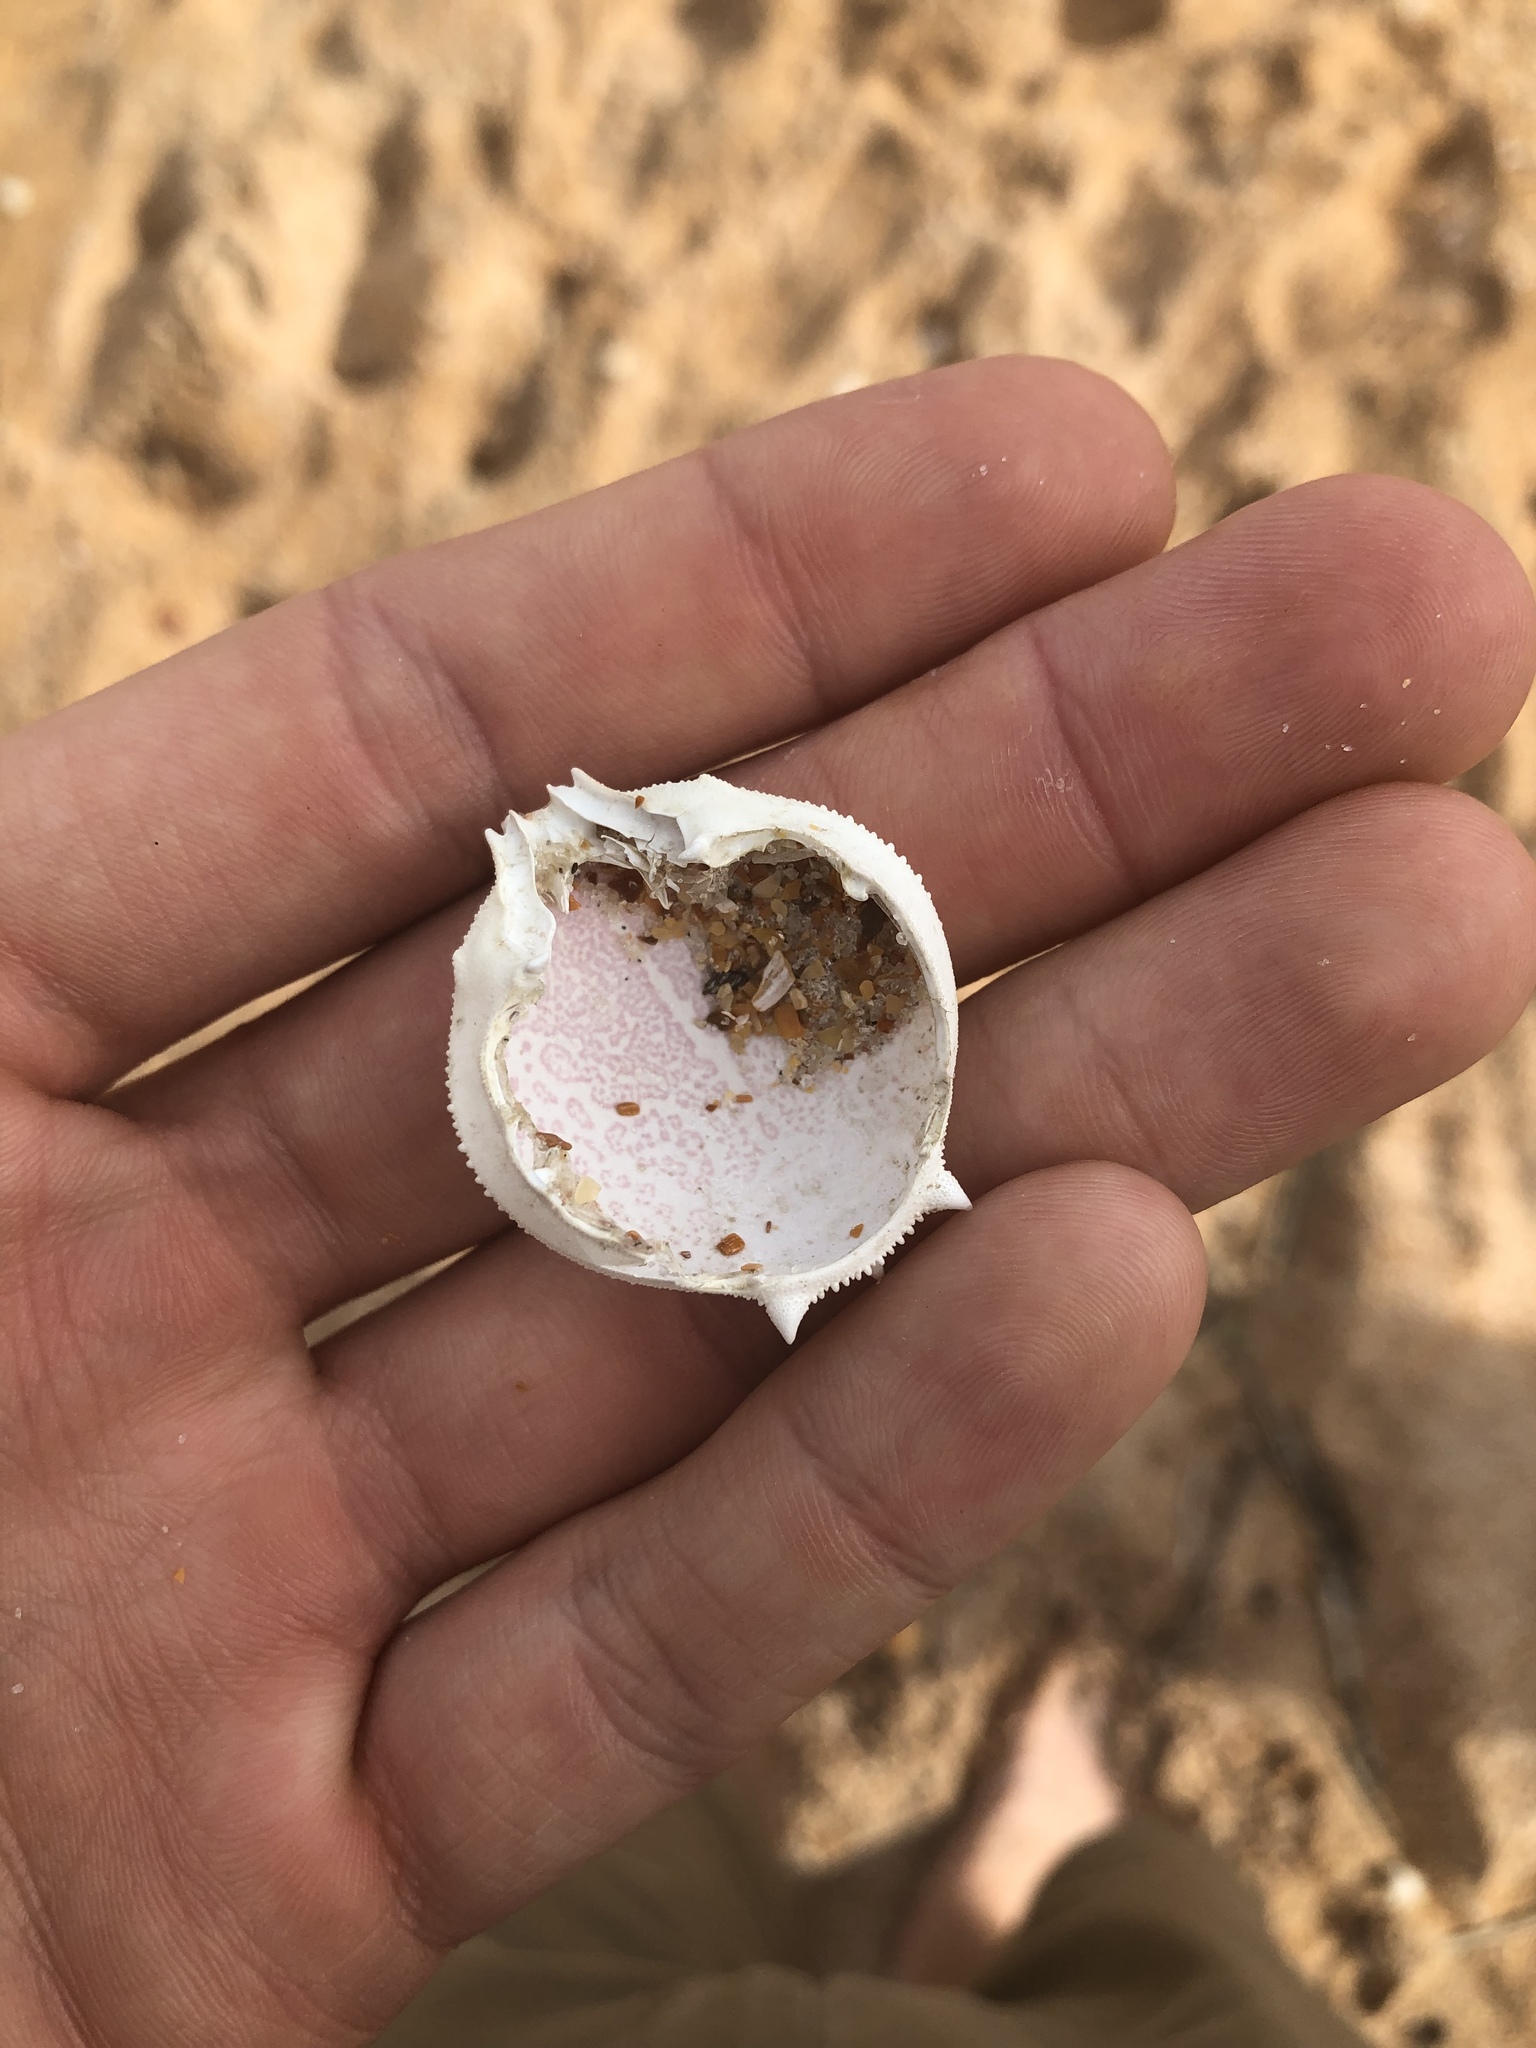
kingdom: Animalia
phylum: Arthropoda
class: Malacostraca
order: Decapoda
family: Leucosiidae
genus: Persephona
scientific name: Persephona aquilonaris
